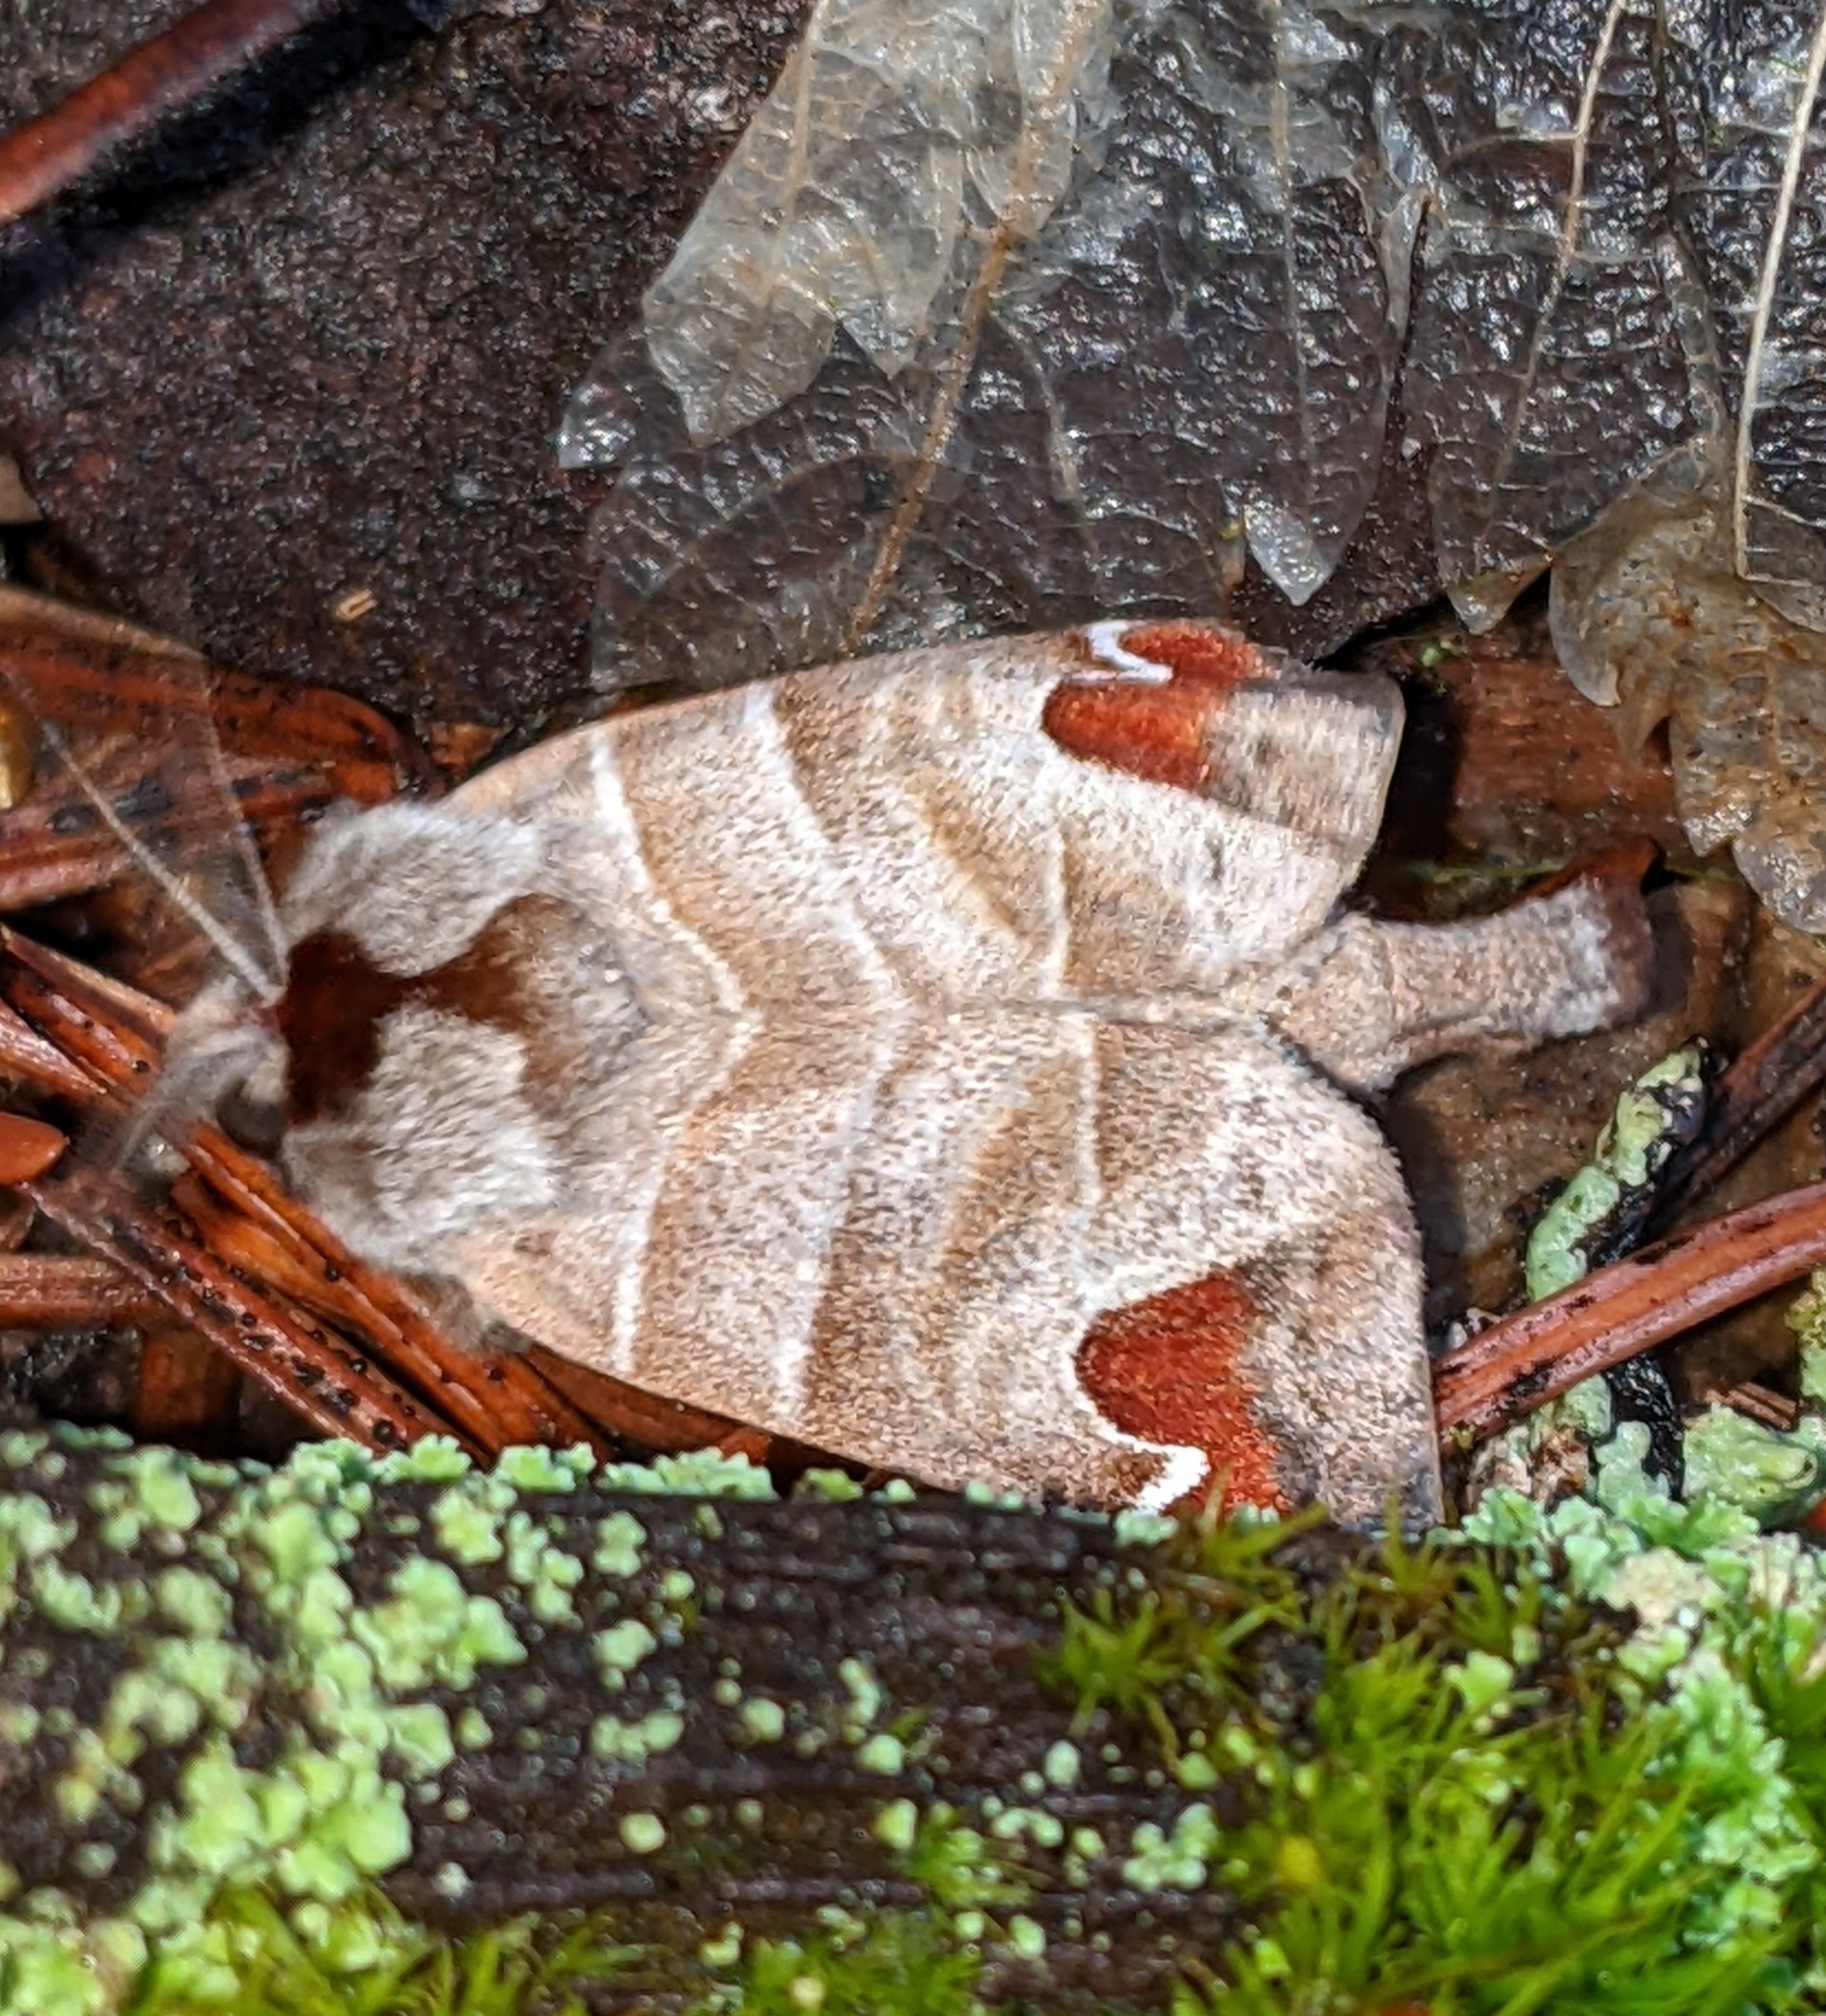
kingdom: Animalia
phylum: Arthropoda
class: Insecta
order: Lepidoptera
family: Notodontidae
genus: Clostera
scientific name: Clostera albosigma
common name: Sigmoid prominent
